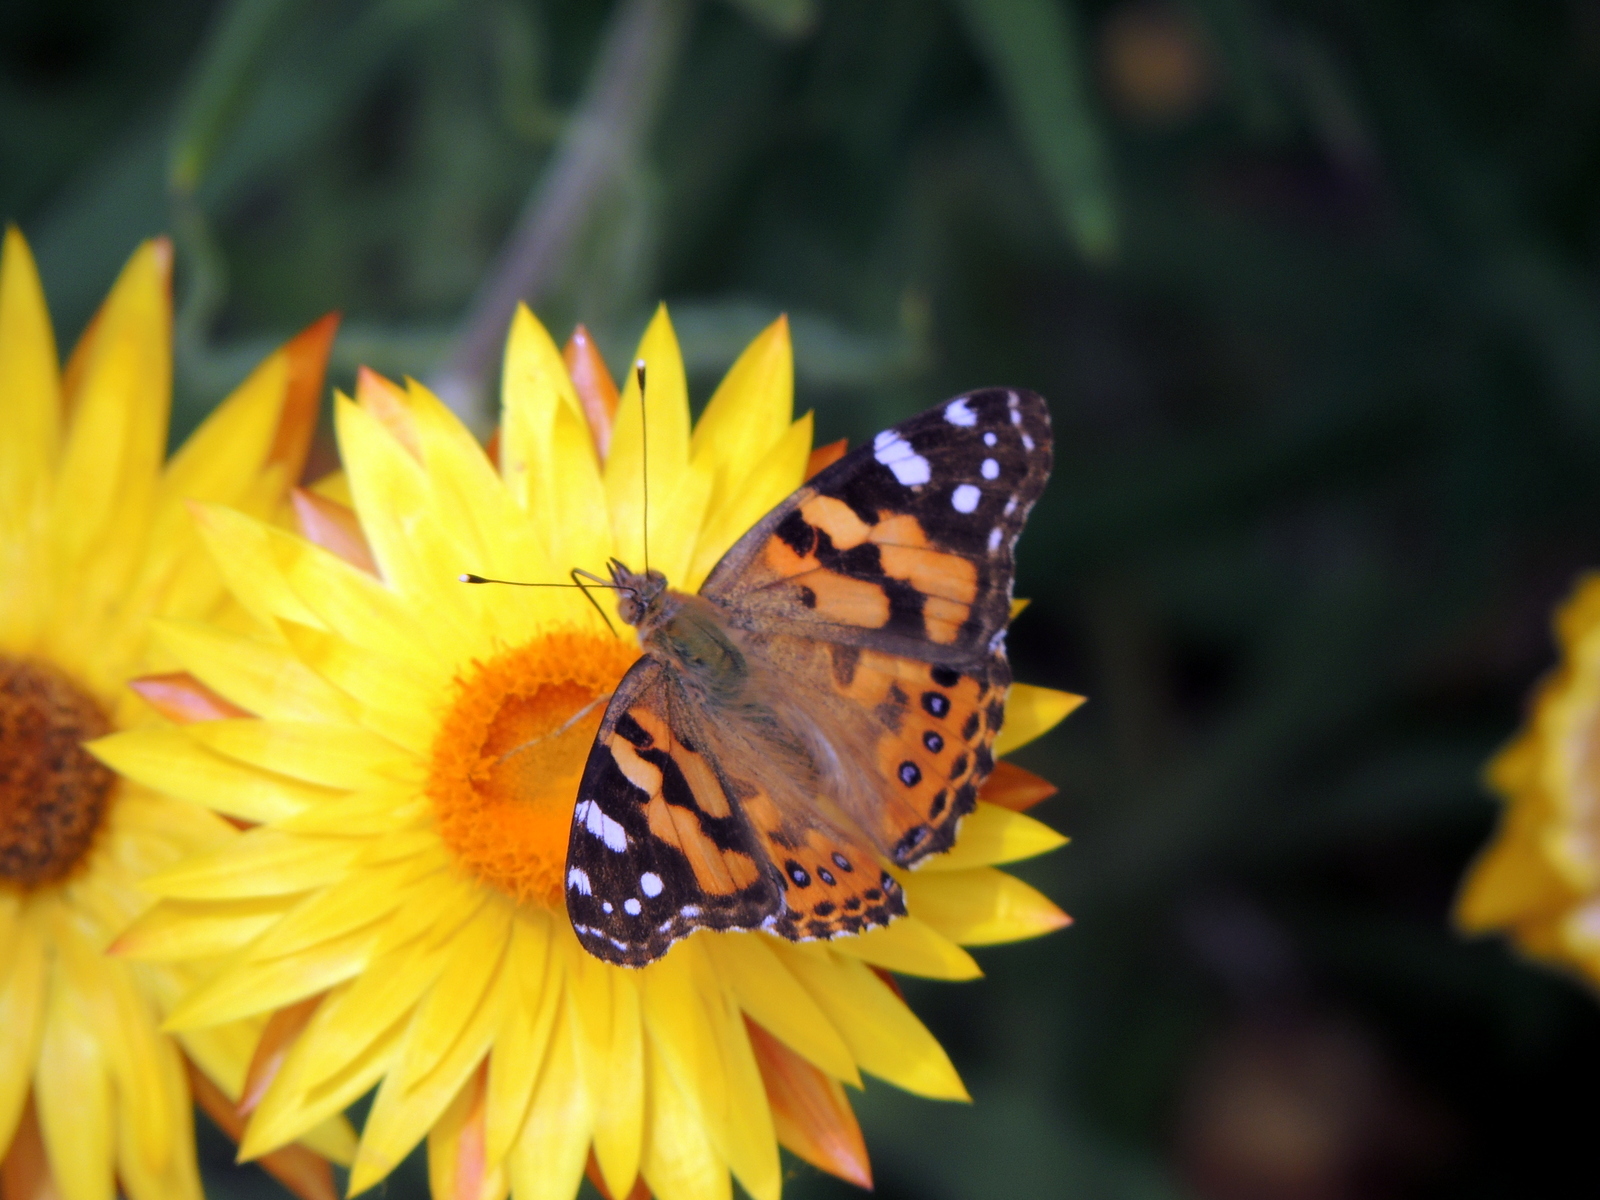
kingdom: Animalia
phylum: Arthropoda
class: Insecta
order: Lepidoptera
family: Nymphalidae
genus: Vanessa
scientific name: Vanessa kershawi
